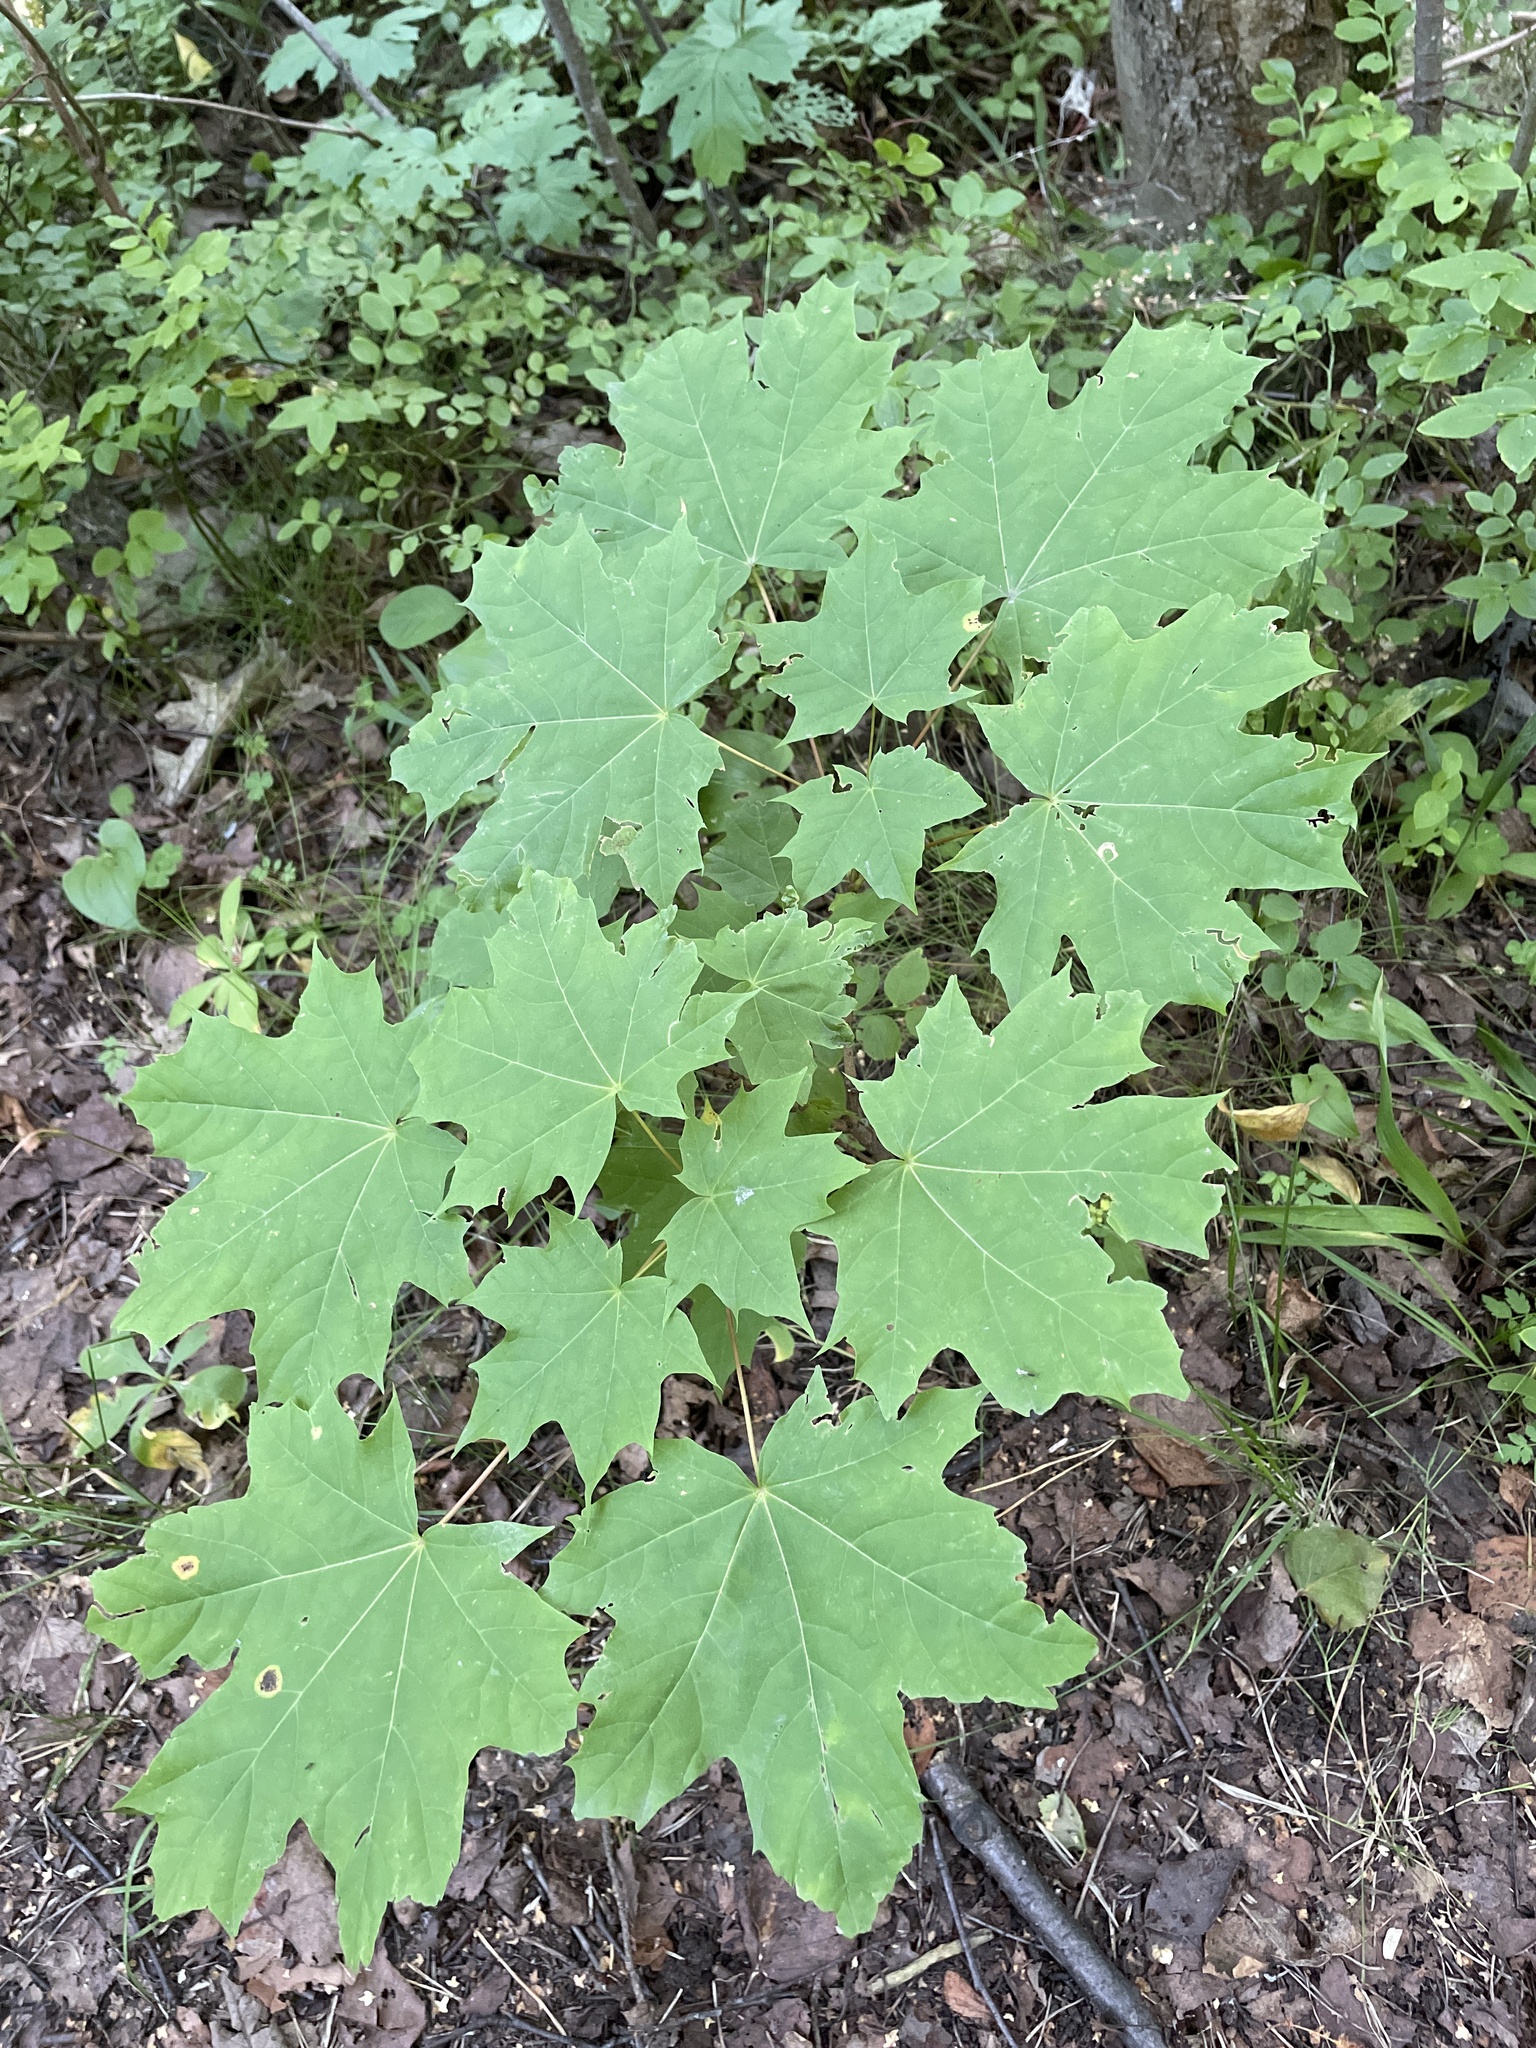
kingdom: Plantae
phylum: Tracheophyta
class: Magnoliopsida
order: Sapindales
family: Sapindaceae
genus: Acer
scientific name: Acer platanoides
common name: Norway maple
